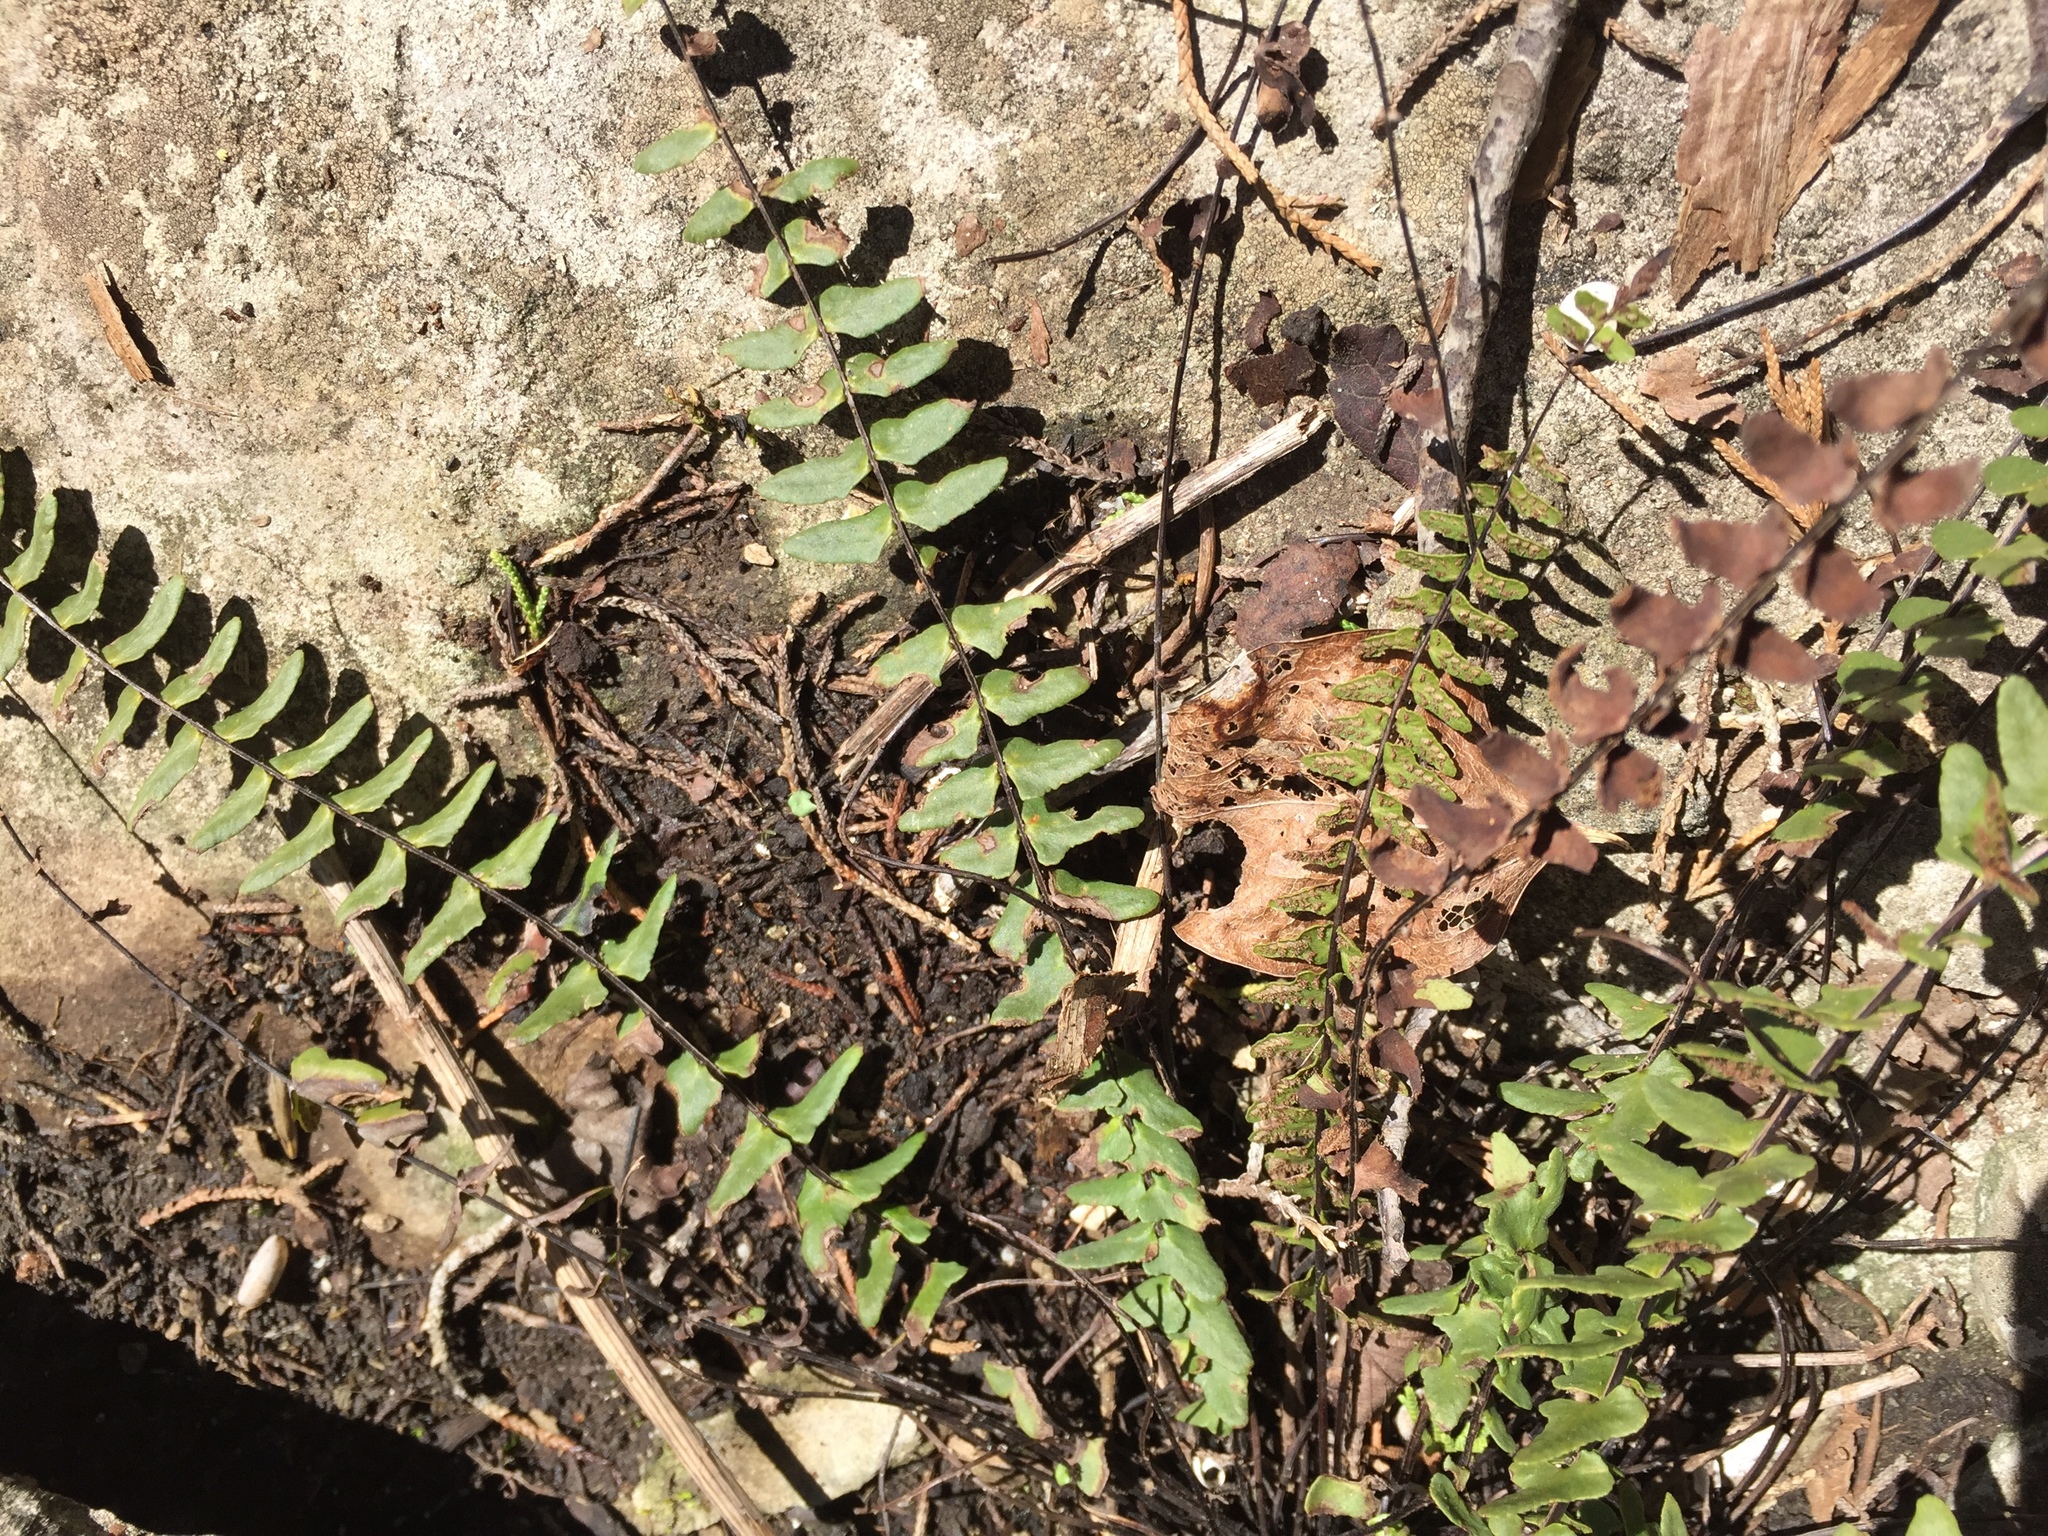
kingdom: Plantae
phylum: Tracheophyta
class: Polypodiopsida
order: Polypodiales
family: Aspleniaceae
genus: Asplenium
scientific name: Asplenium trichomanes
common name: Maidenhair spleenwort
